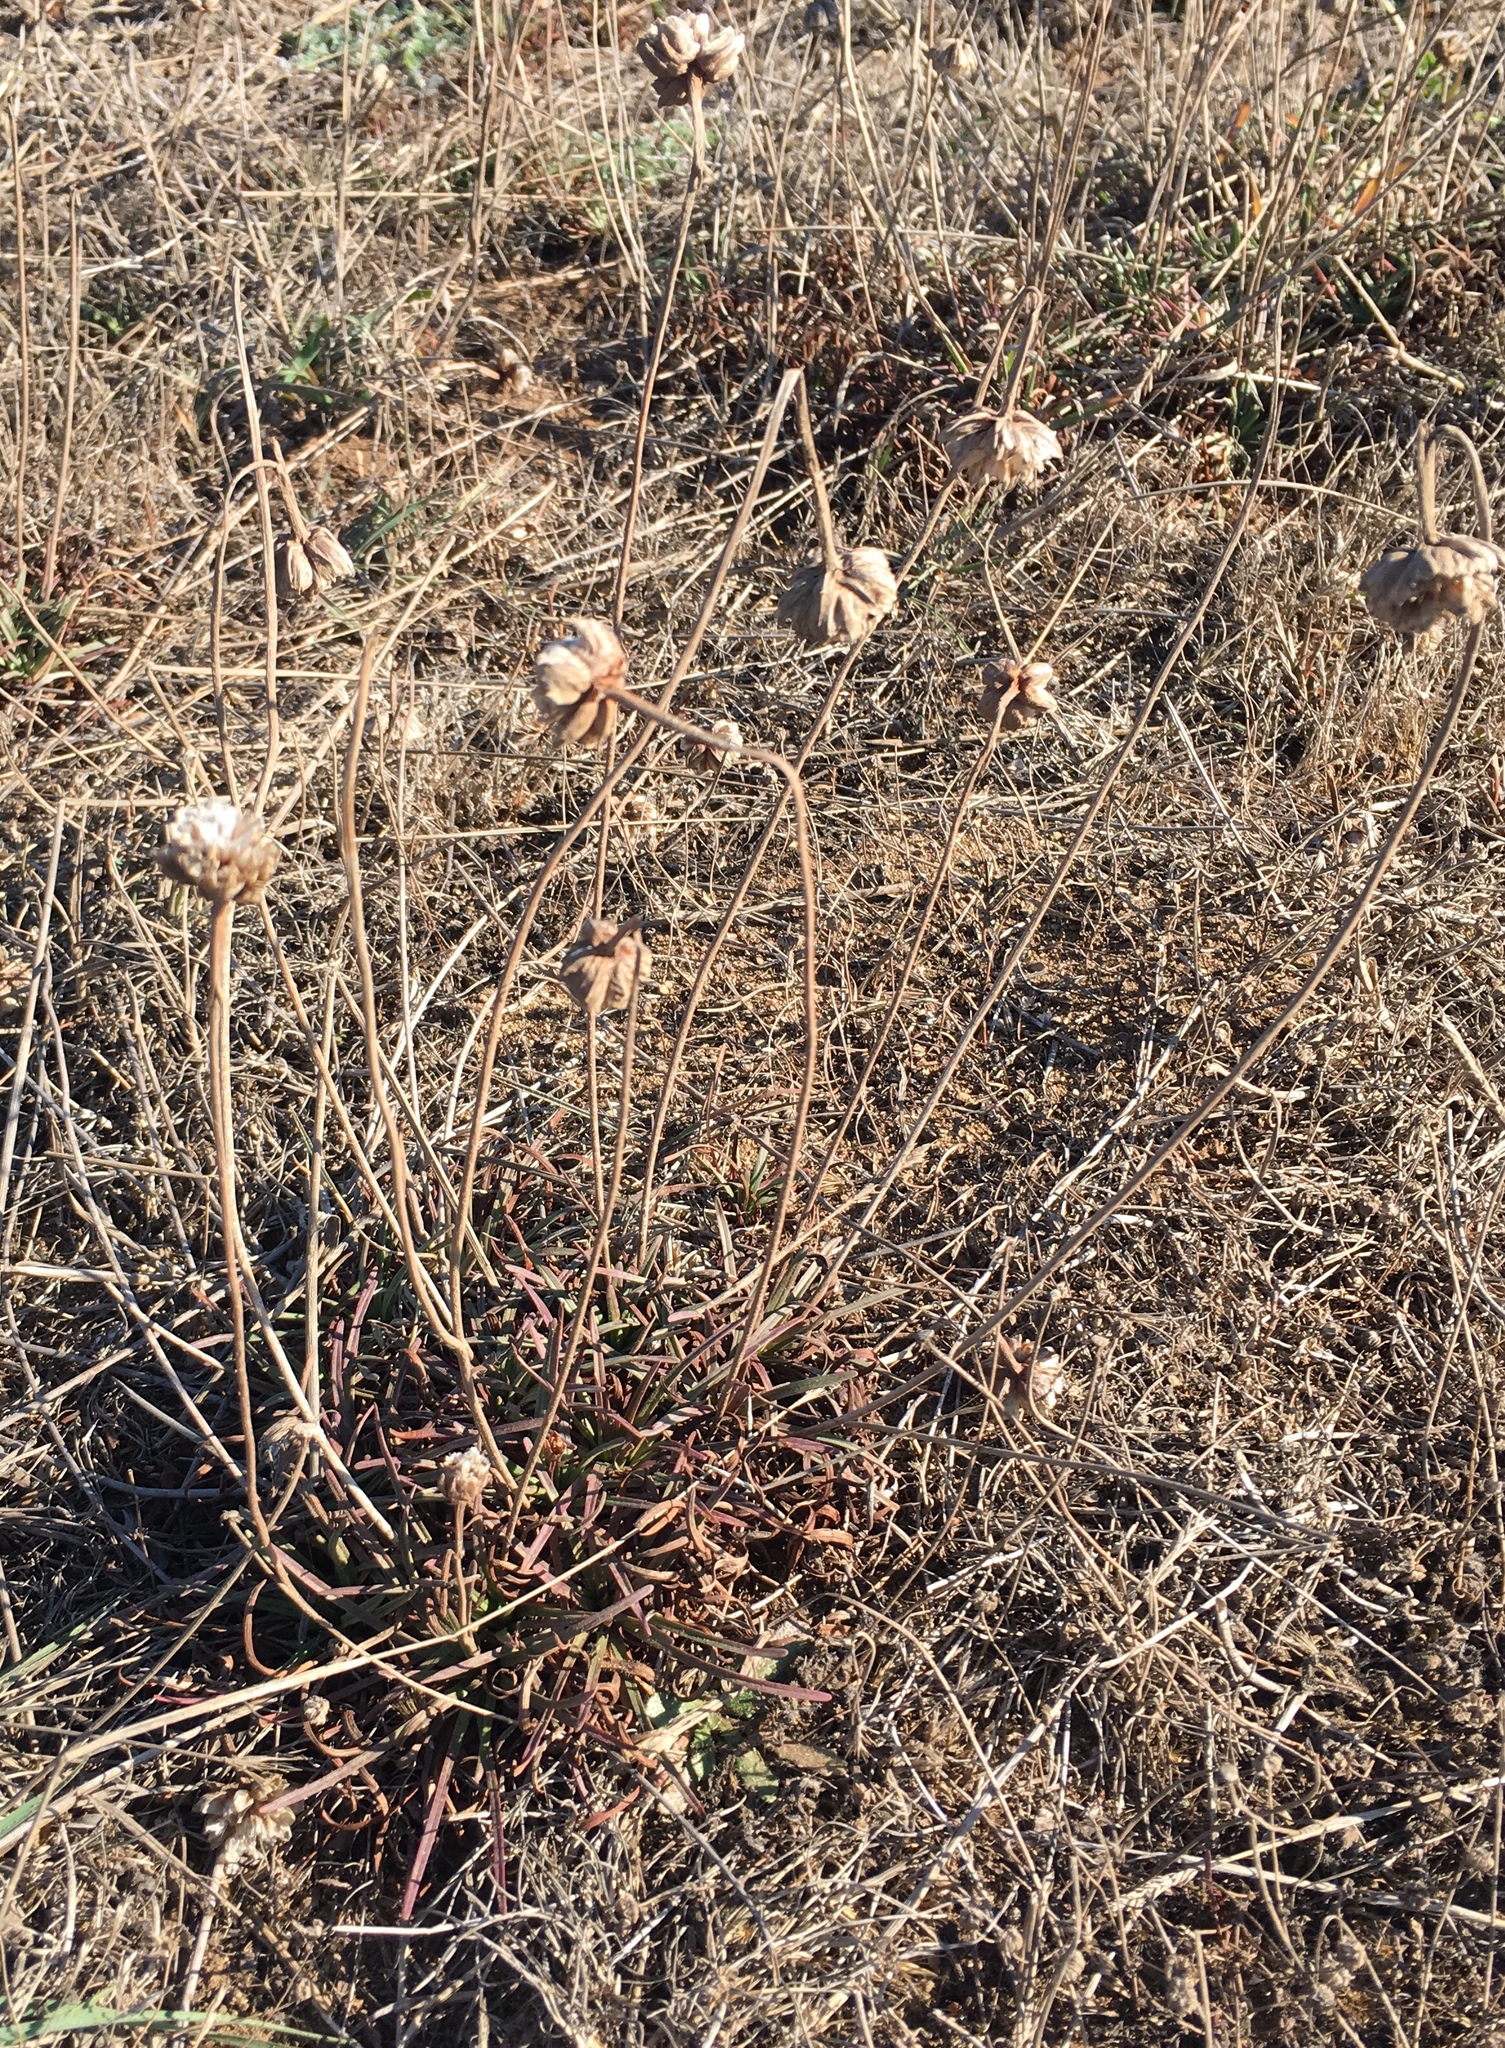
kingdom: Plantae
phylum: Tracheophyta
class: Magnoliopsida
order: Caryophyllales
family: Plumbaginaceae
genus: Armeria
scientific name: Armeria maritima
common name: Thrift
